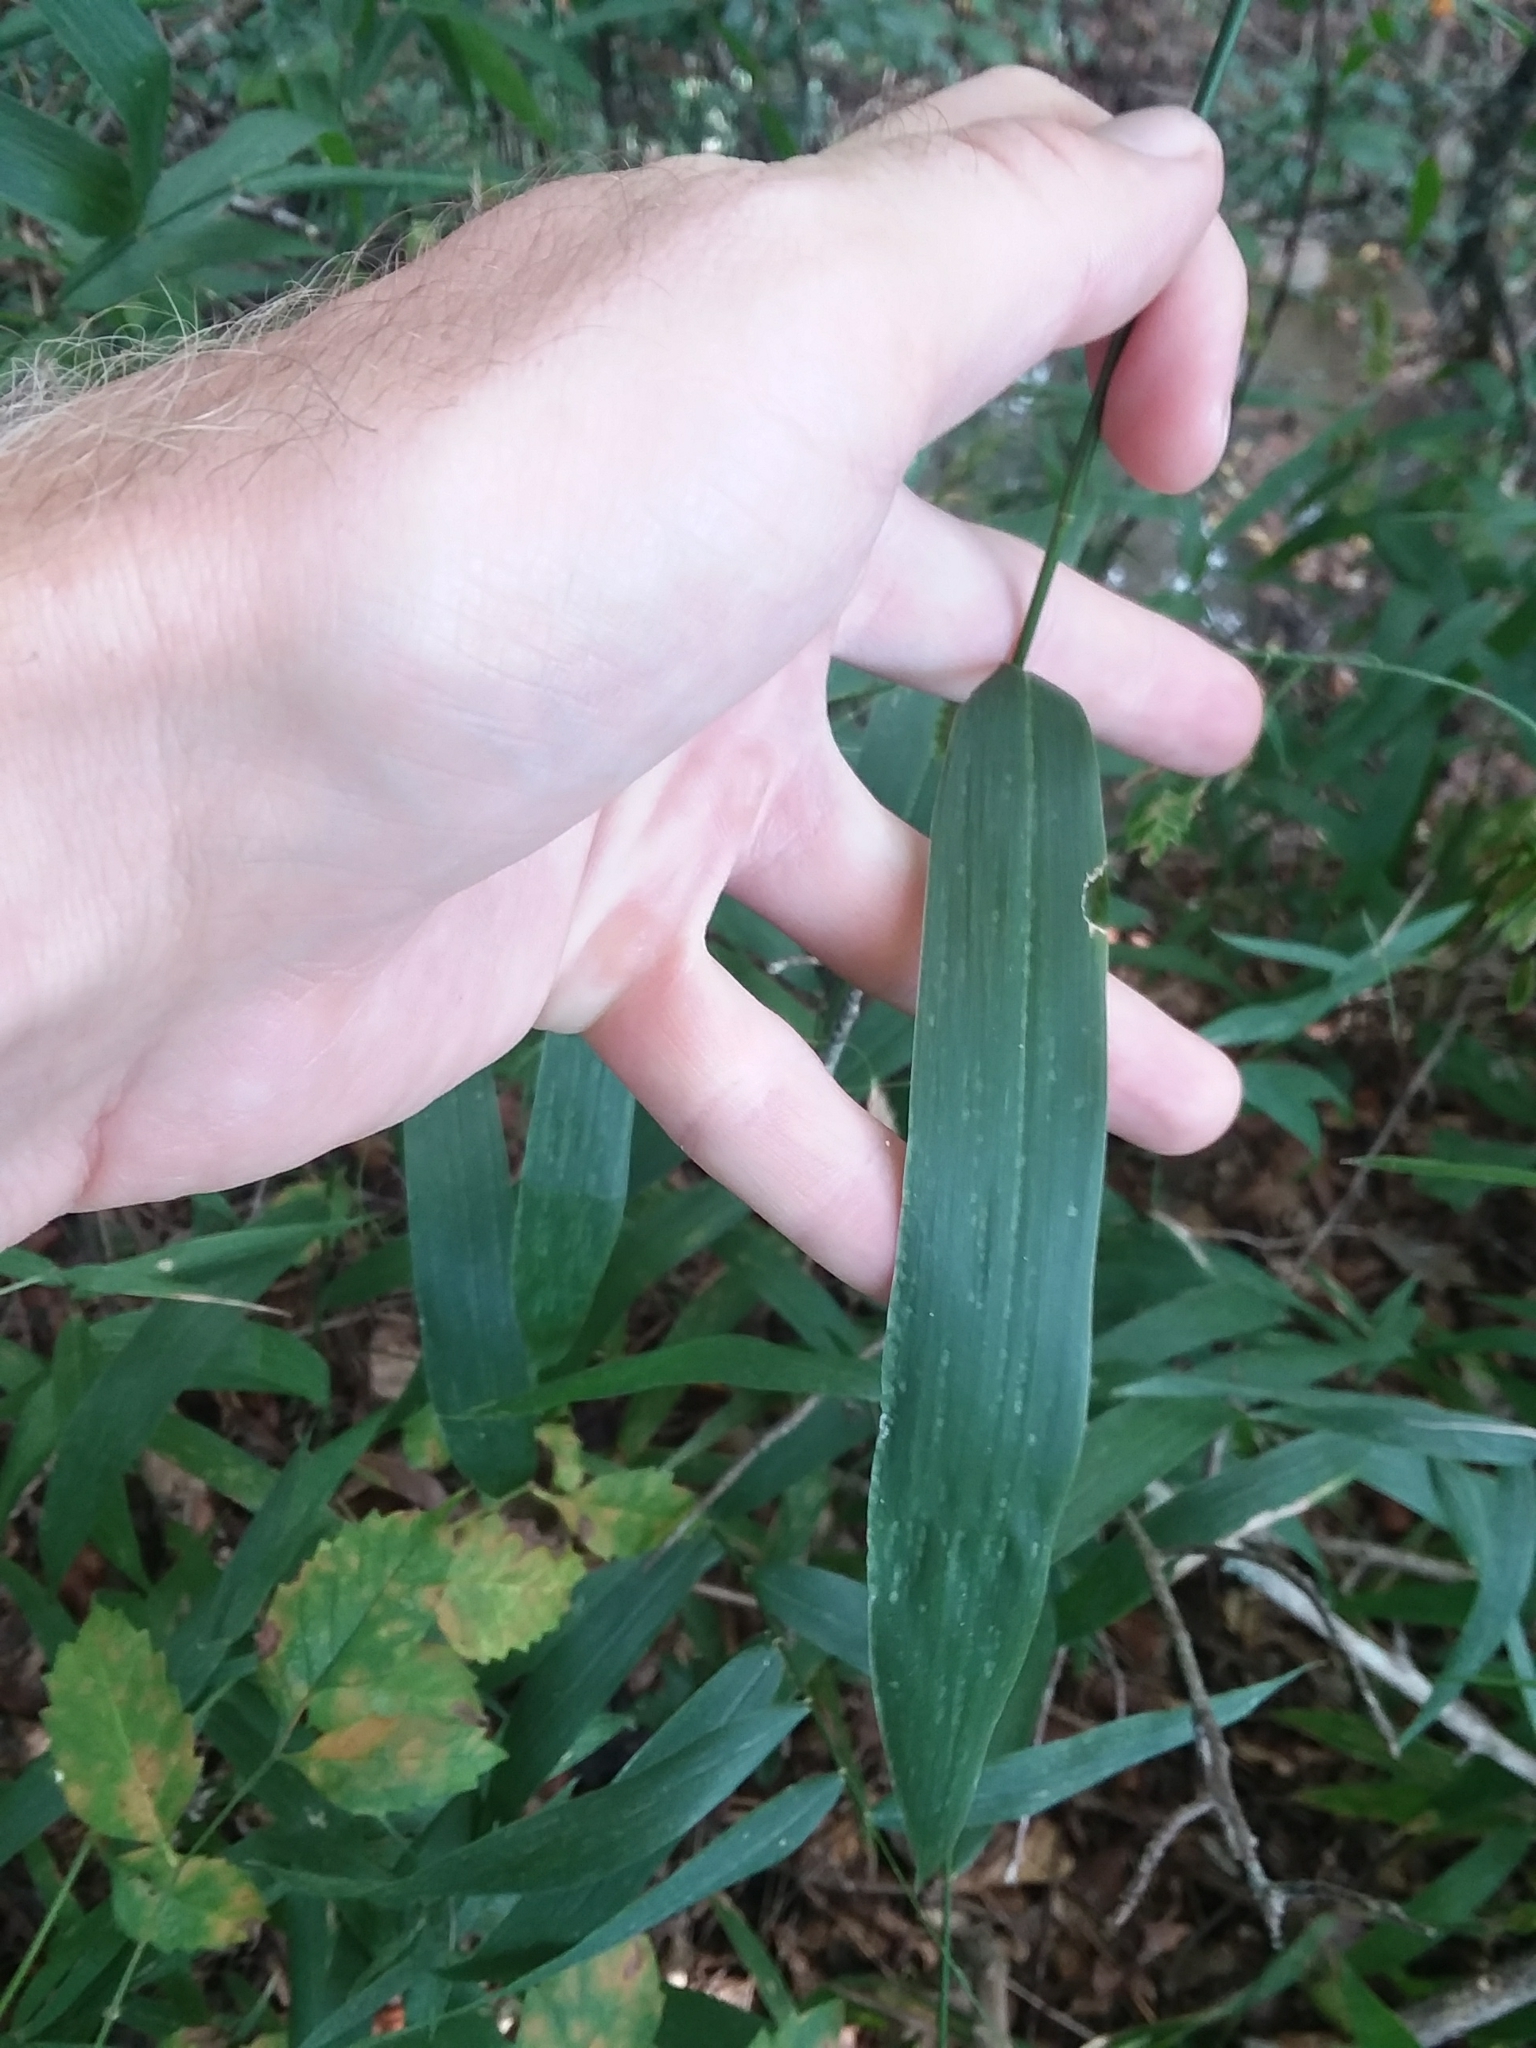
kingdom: Plantae
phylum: Tracheophyta
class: Liliopsida
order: Poales
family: Poaceae
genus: Chasmanthium
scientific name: Chasmanthium latifolium
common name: Broad-leaved chasmanthium
